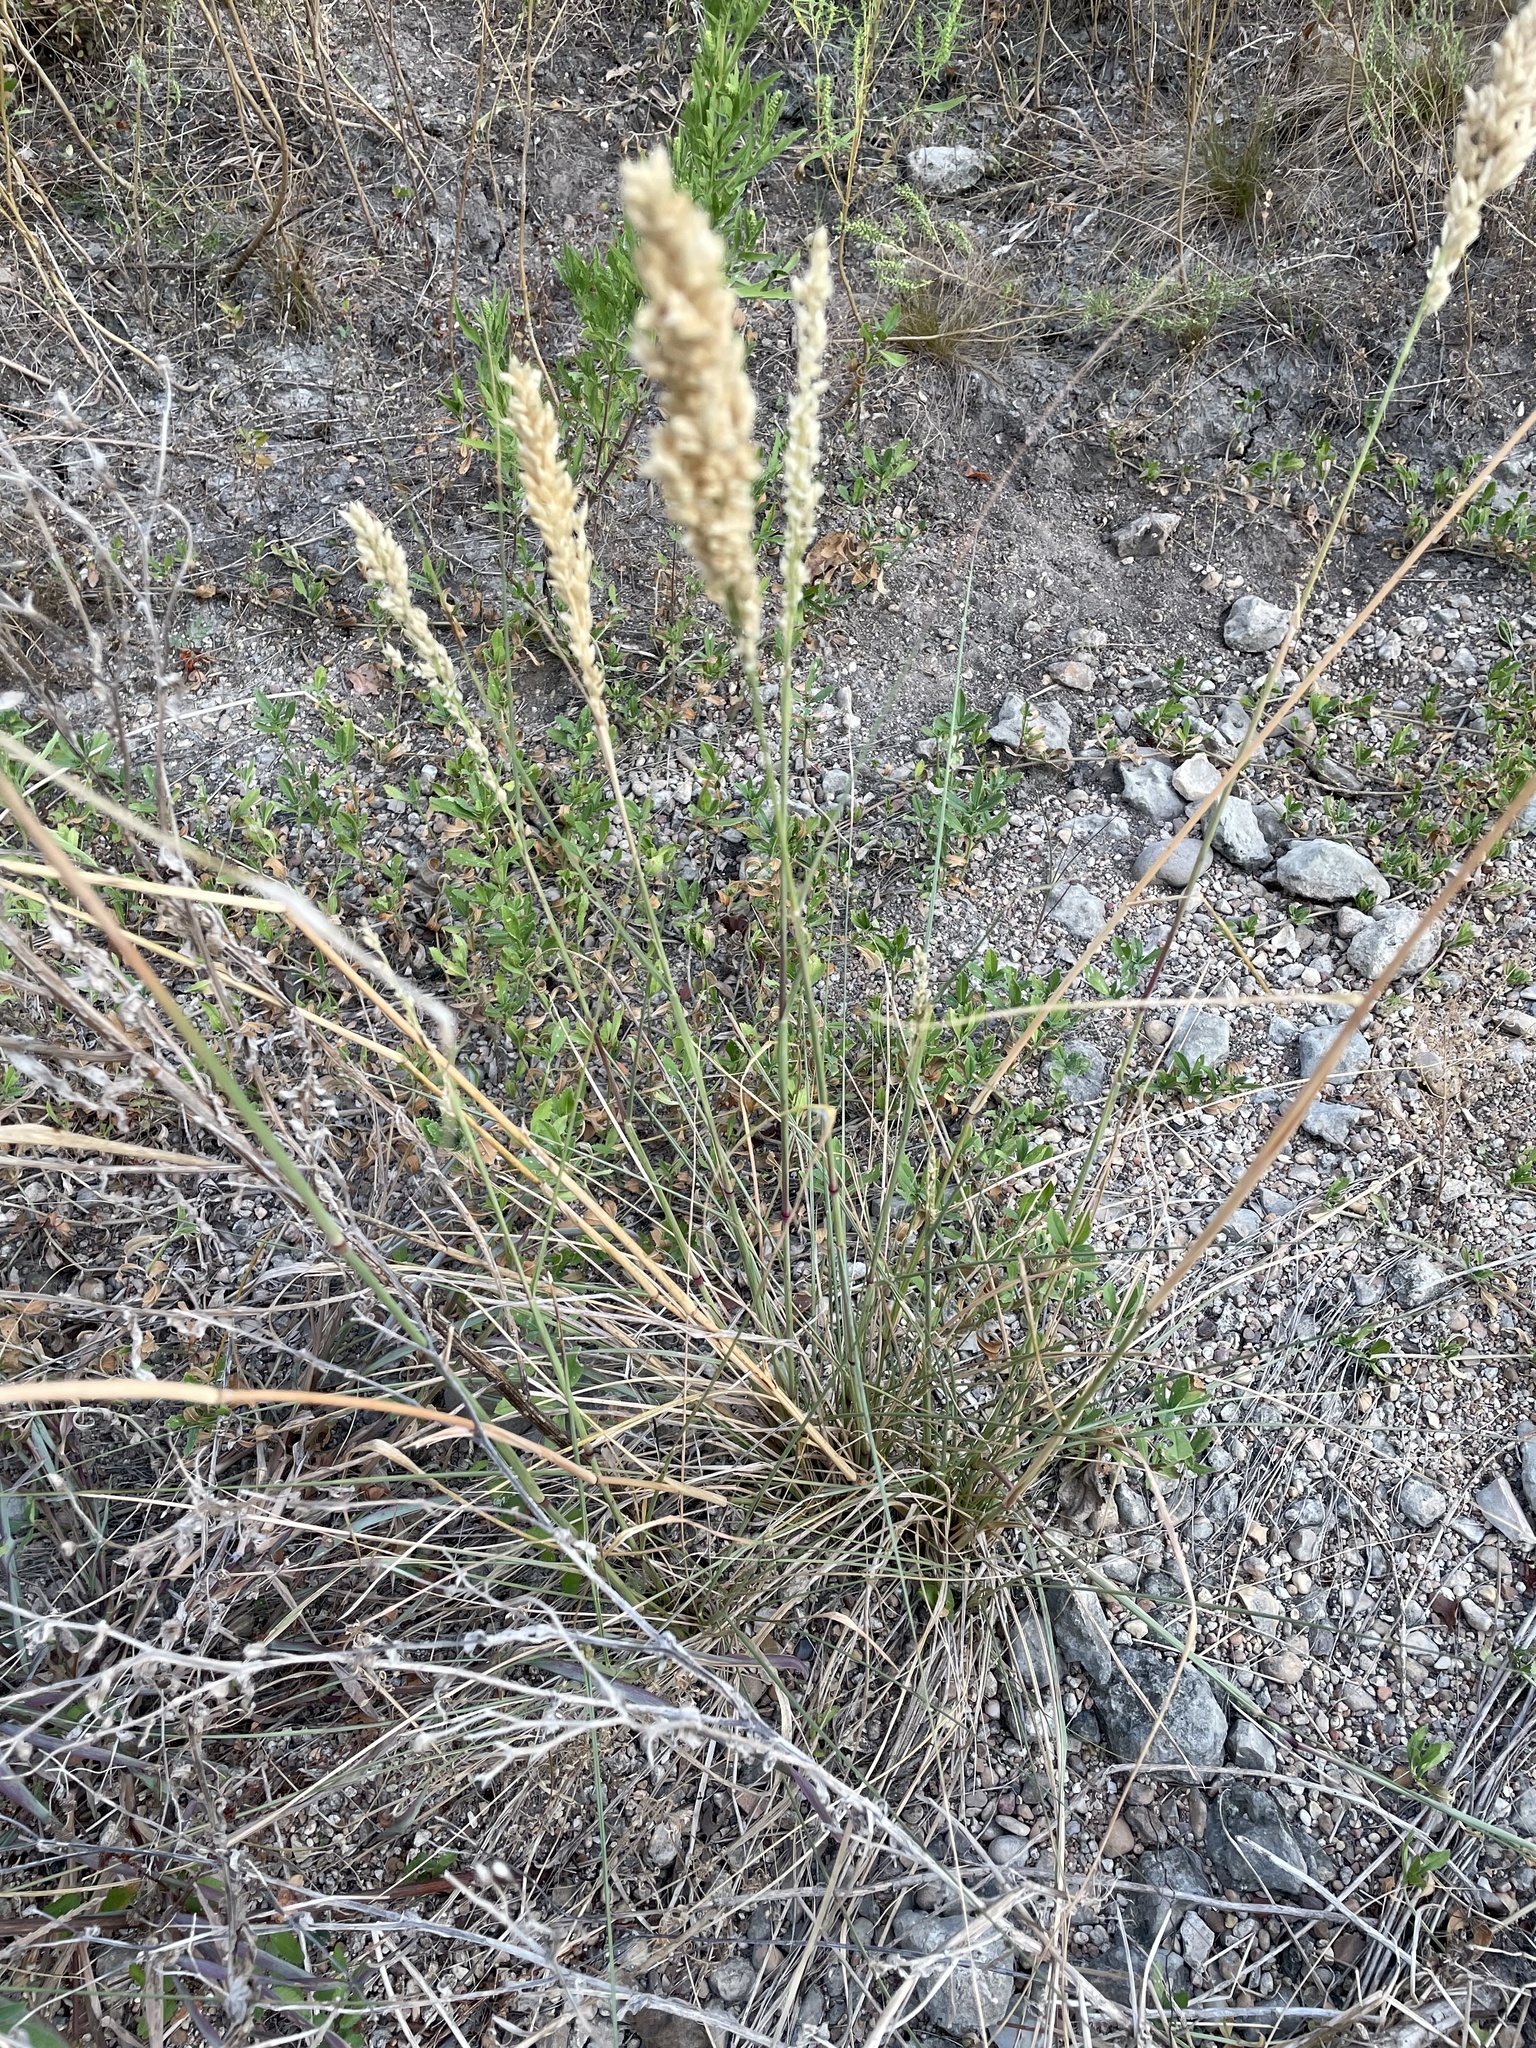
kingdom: Plantae
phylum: Tracheophyta
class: Liliopsida
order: Poales
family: Poaceae
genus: Tridens
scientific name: Tridens congestus
